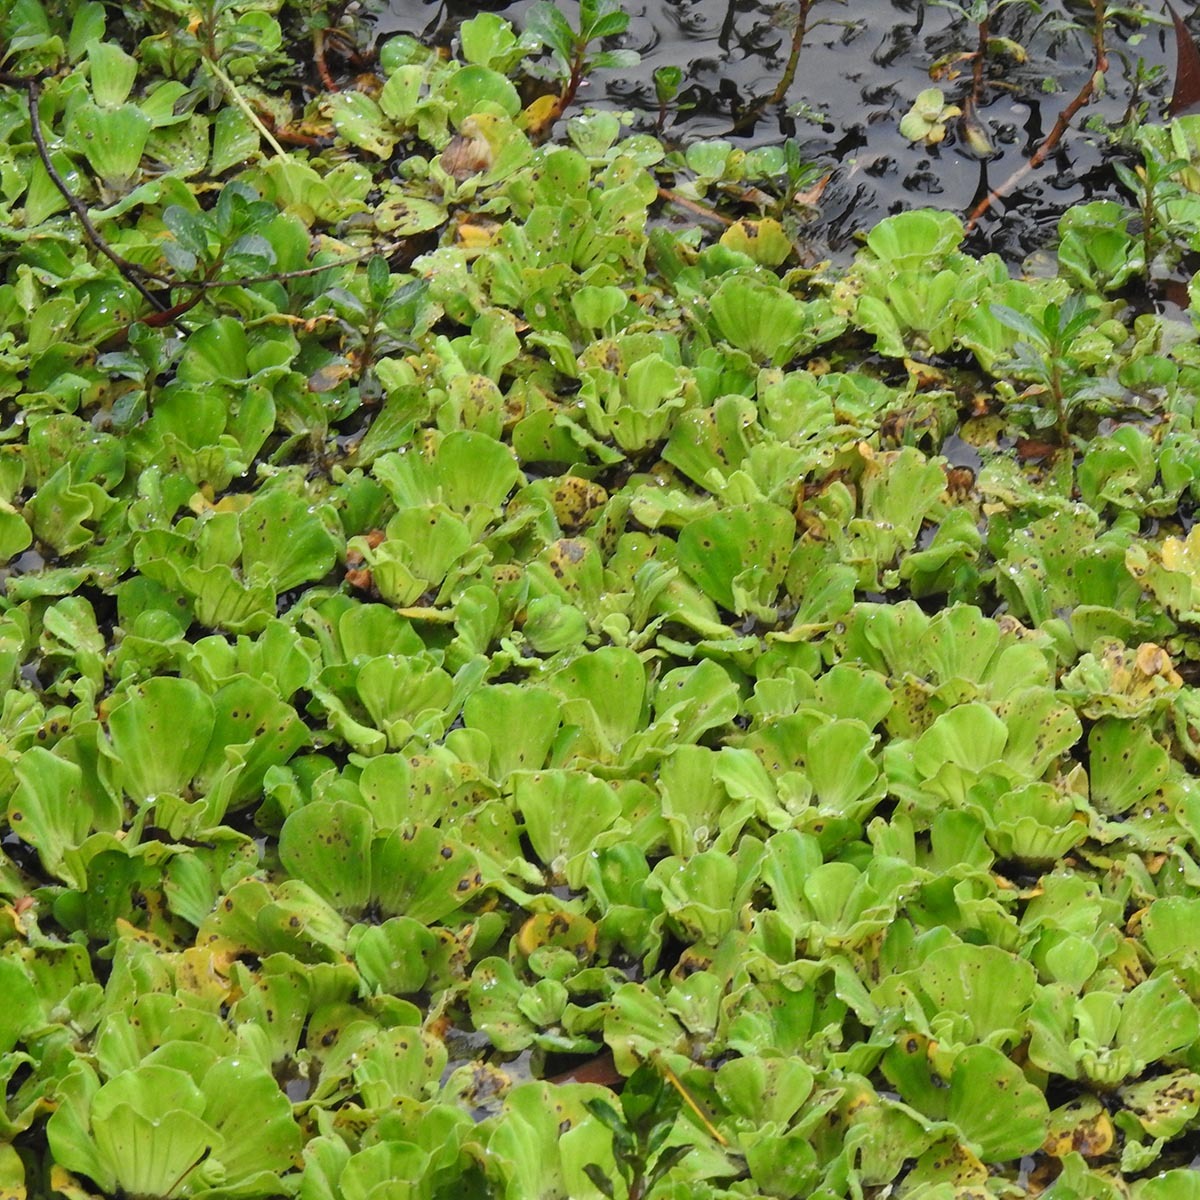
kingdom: Plantae
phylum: Tracheophyta
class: Liliopsida
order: Alismatales
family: Araceae
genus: Pistia
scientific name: Pistia stratiotes
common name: Water lettuce
